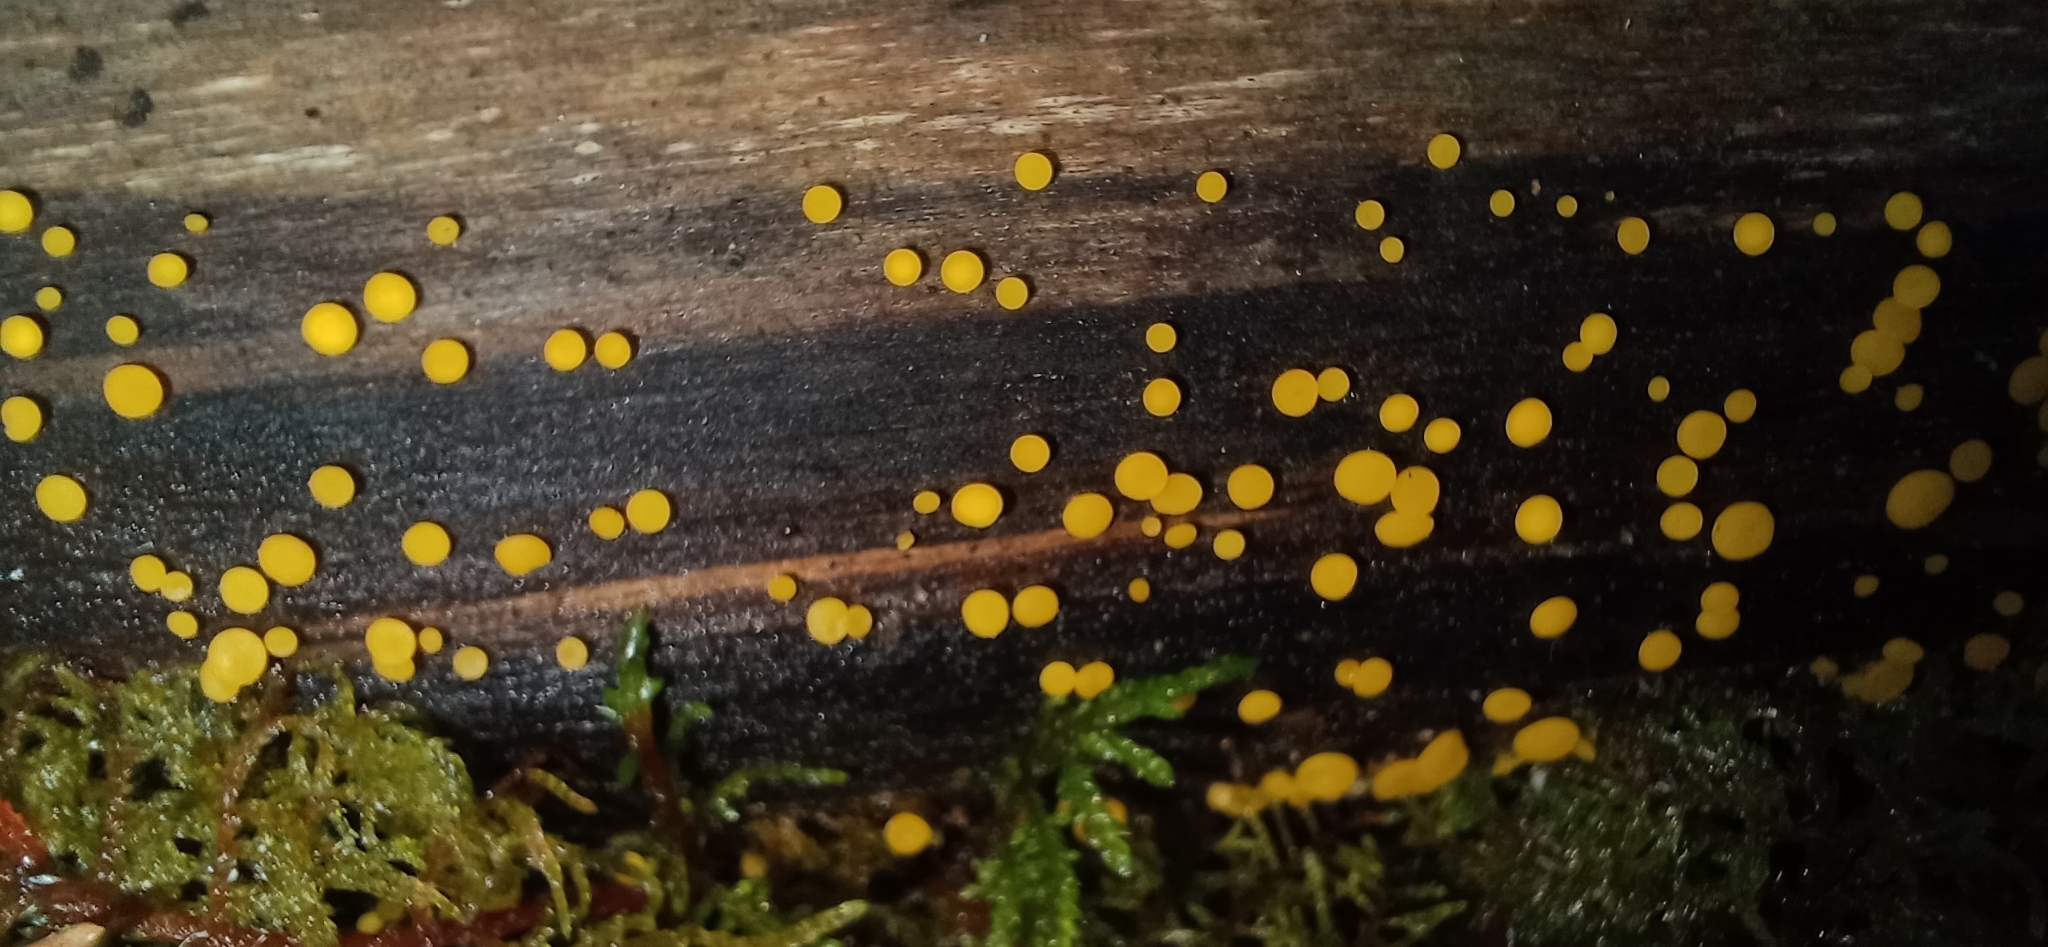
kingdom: Fungi
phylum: Ascomycota
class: Leotiomycetes
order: Helotiales
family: Pezizellaceae
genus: Calycina
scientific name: Calycina citrina
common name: Yellow fairy cups
